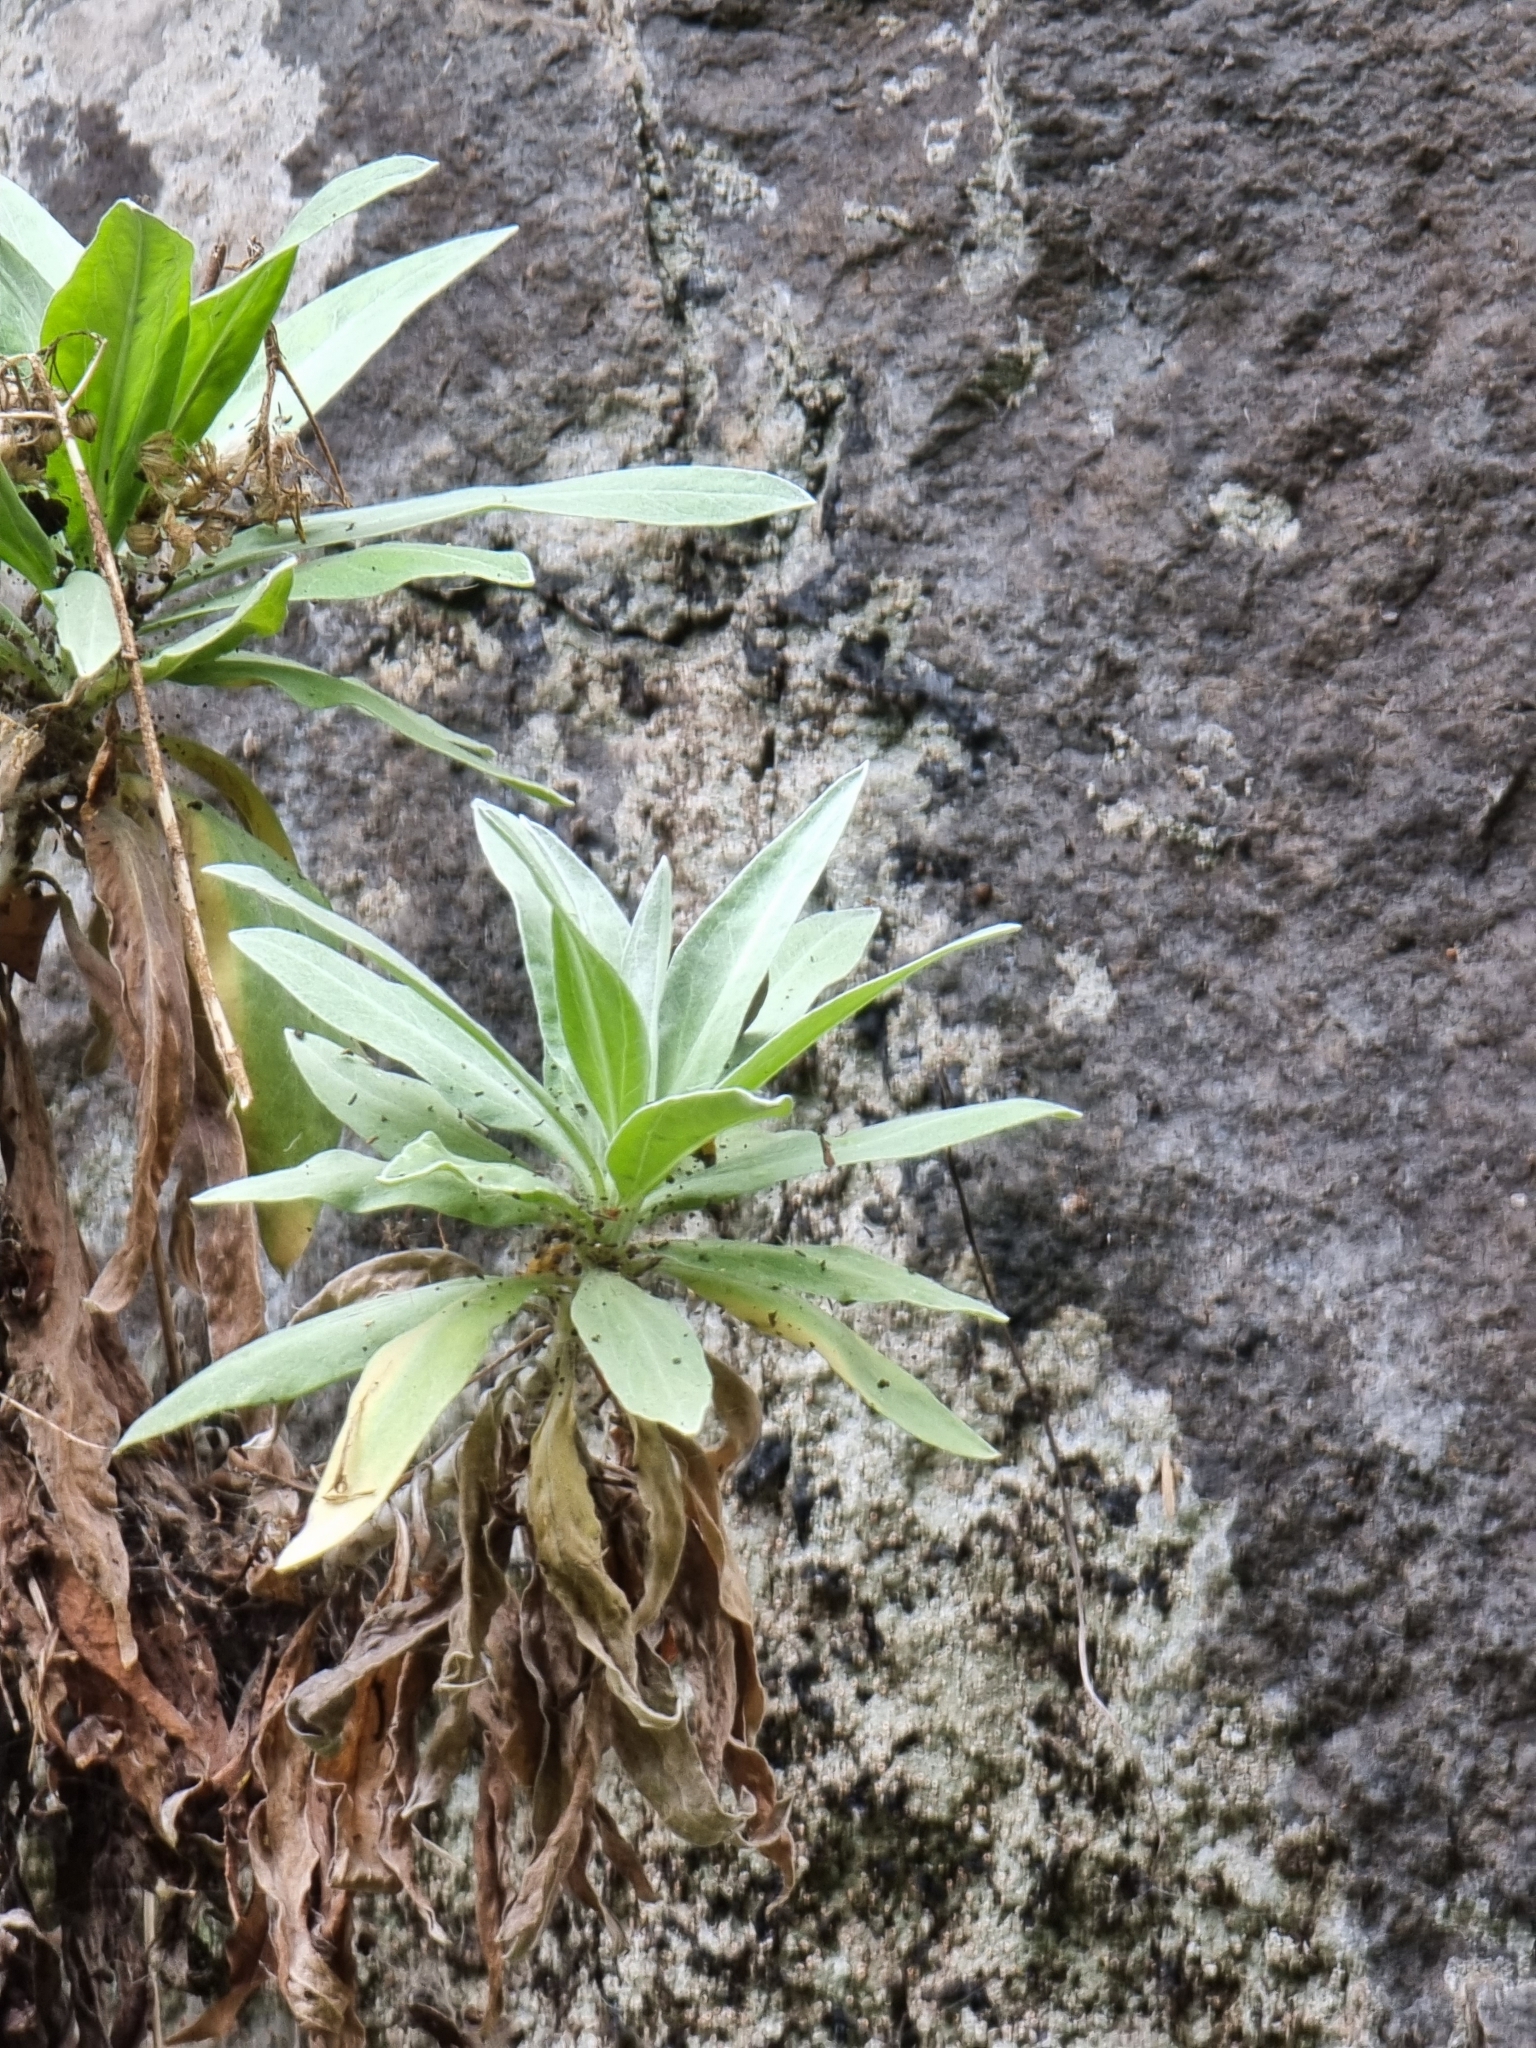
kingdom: Plantae
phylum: Tracheophyta
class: Magnoliopsida
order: Asterales
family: Asteraceae
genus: Helichrysum
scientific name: Helichrysum melaleucum
